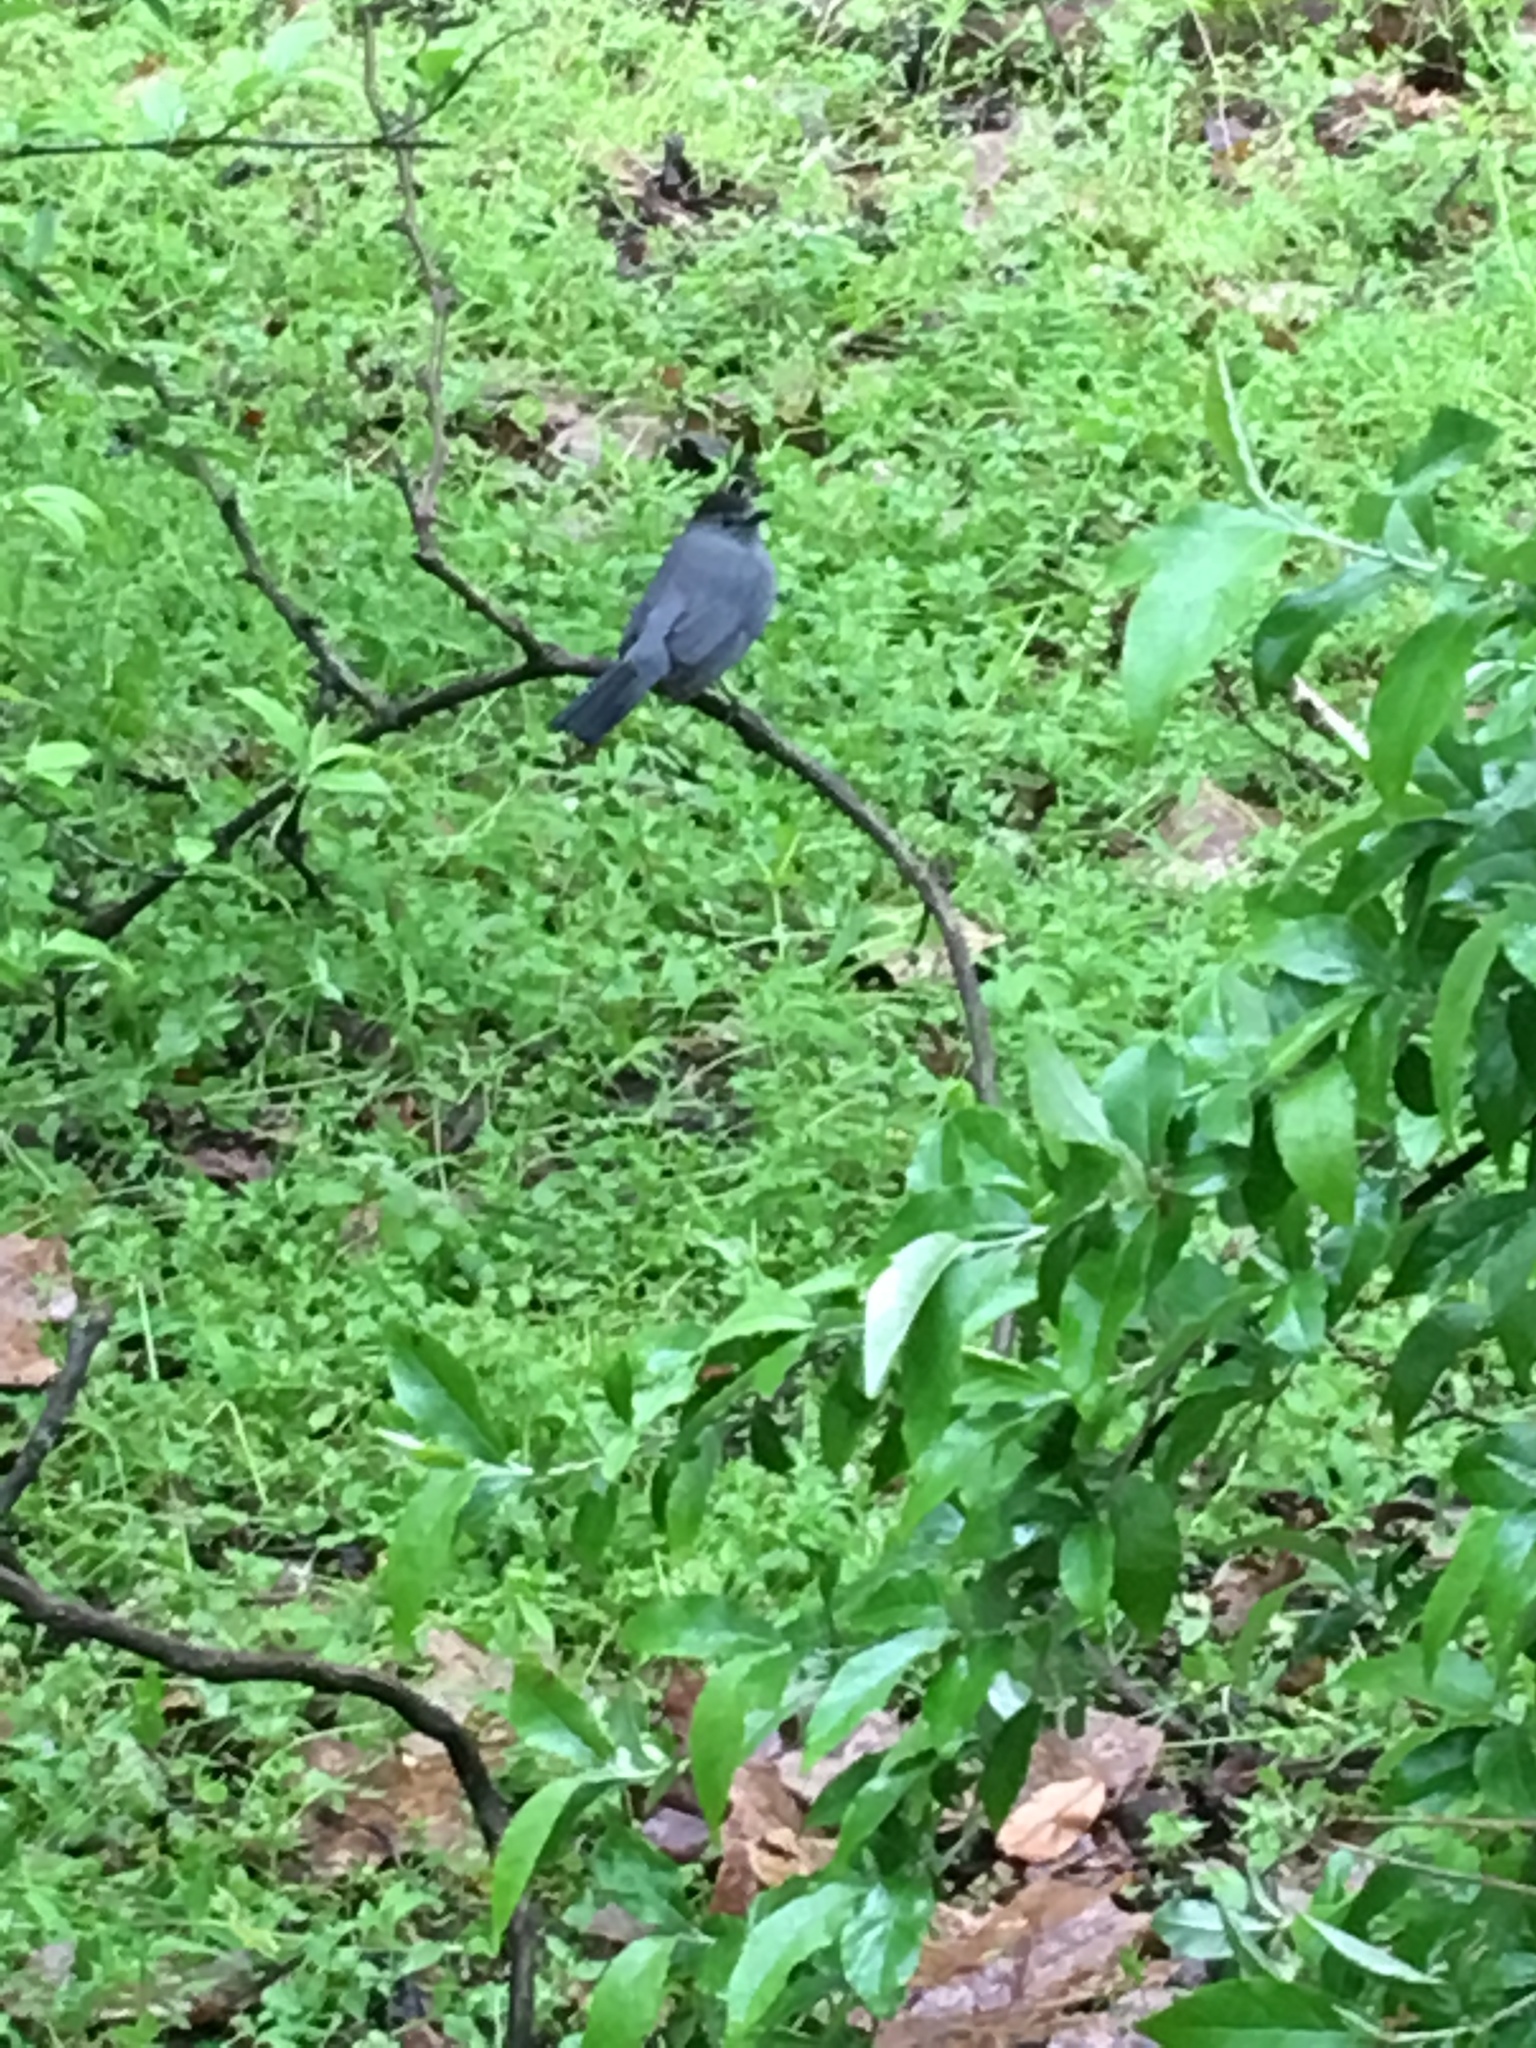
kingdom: Animalia
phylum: Chordata
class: Aves
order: Passeriformes
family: Mimidae
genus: Dumetella
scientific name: Dumetella carolinensis
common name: Gray catbird
